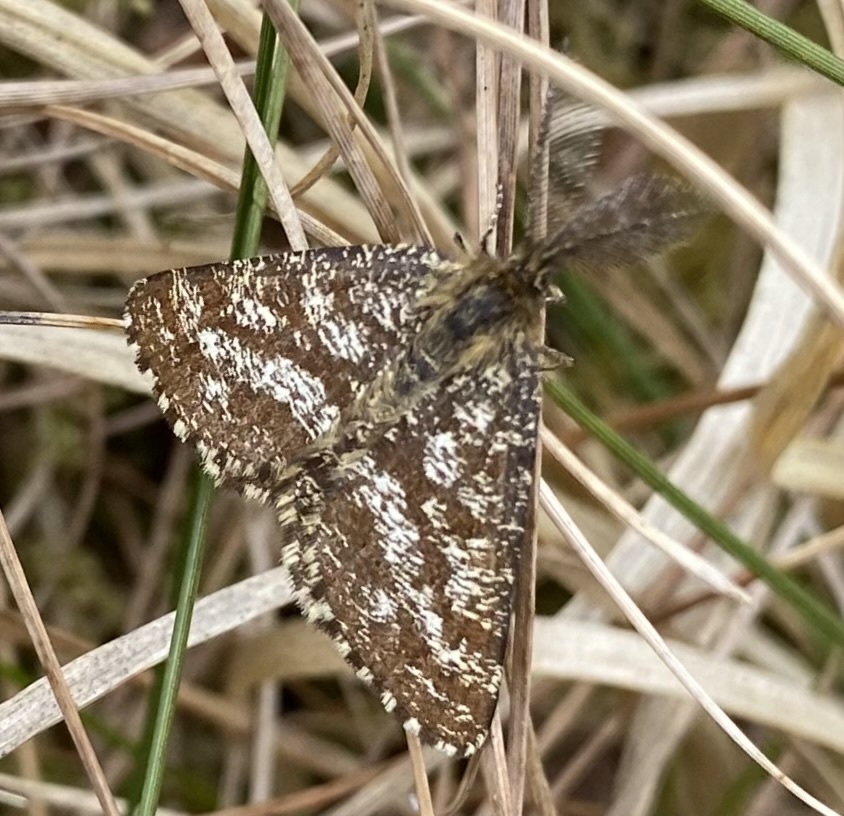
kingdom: Animalia
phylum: Arthropoda
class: Insecta
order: Lepidoptera
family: Geometridae
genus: Ematurga
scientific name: Ematurga atomaria
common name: Common heath
